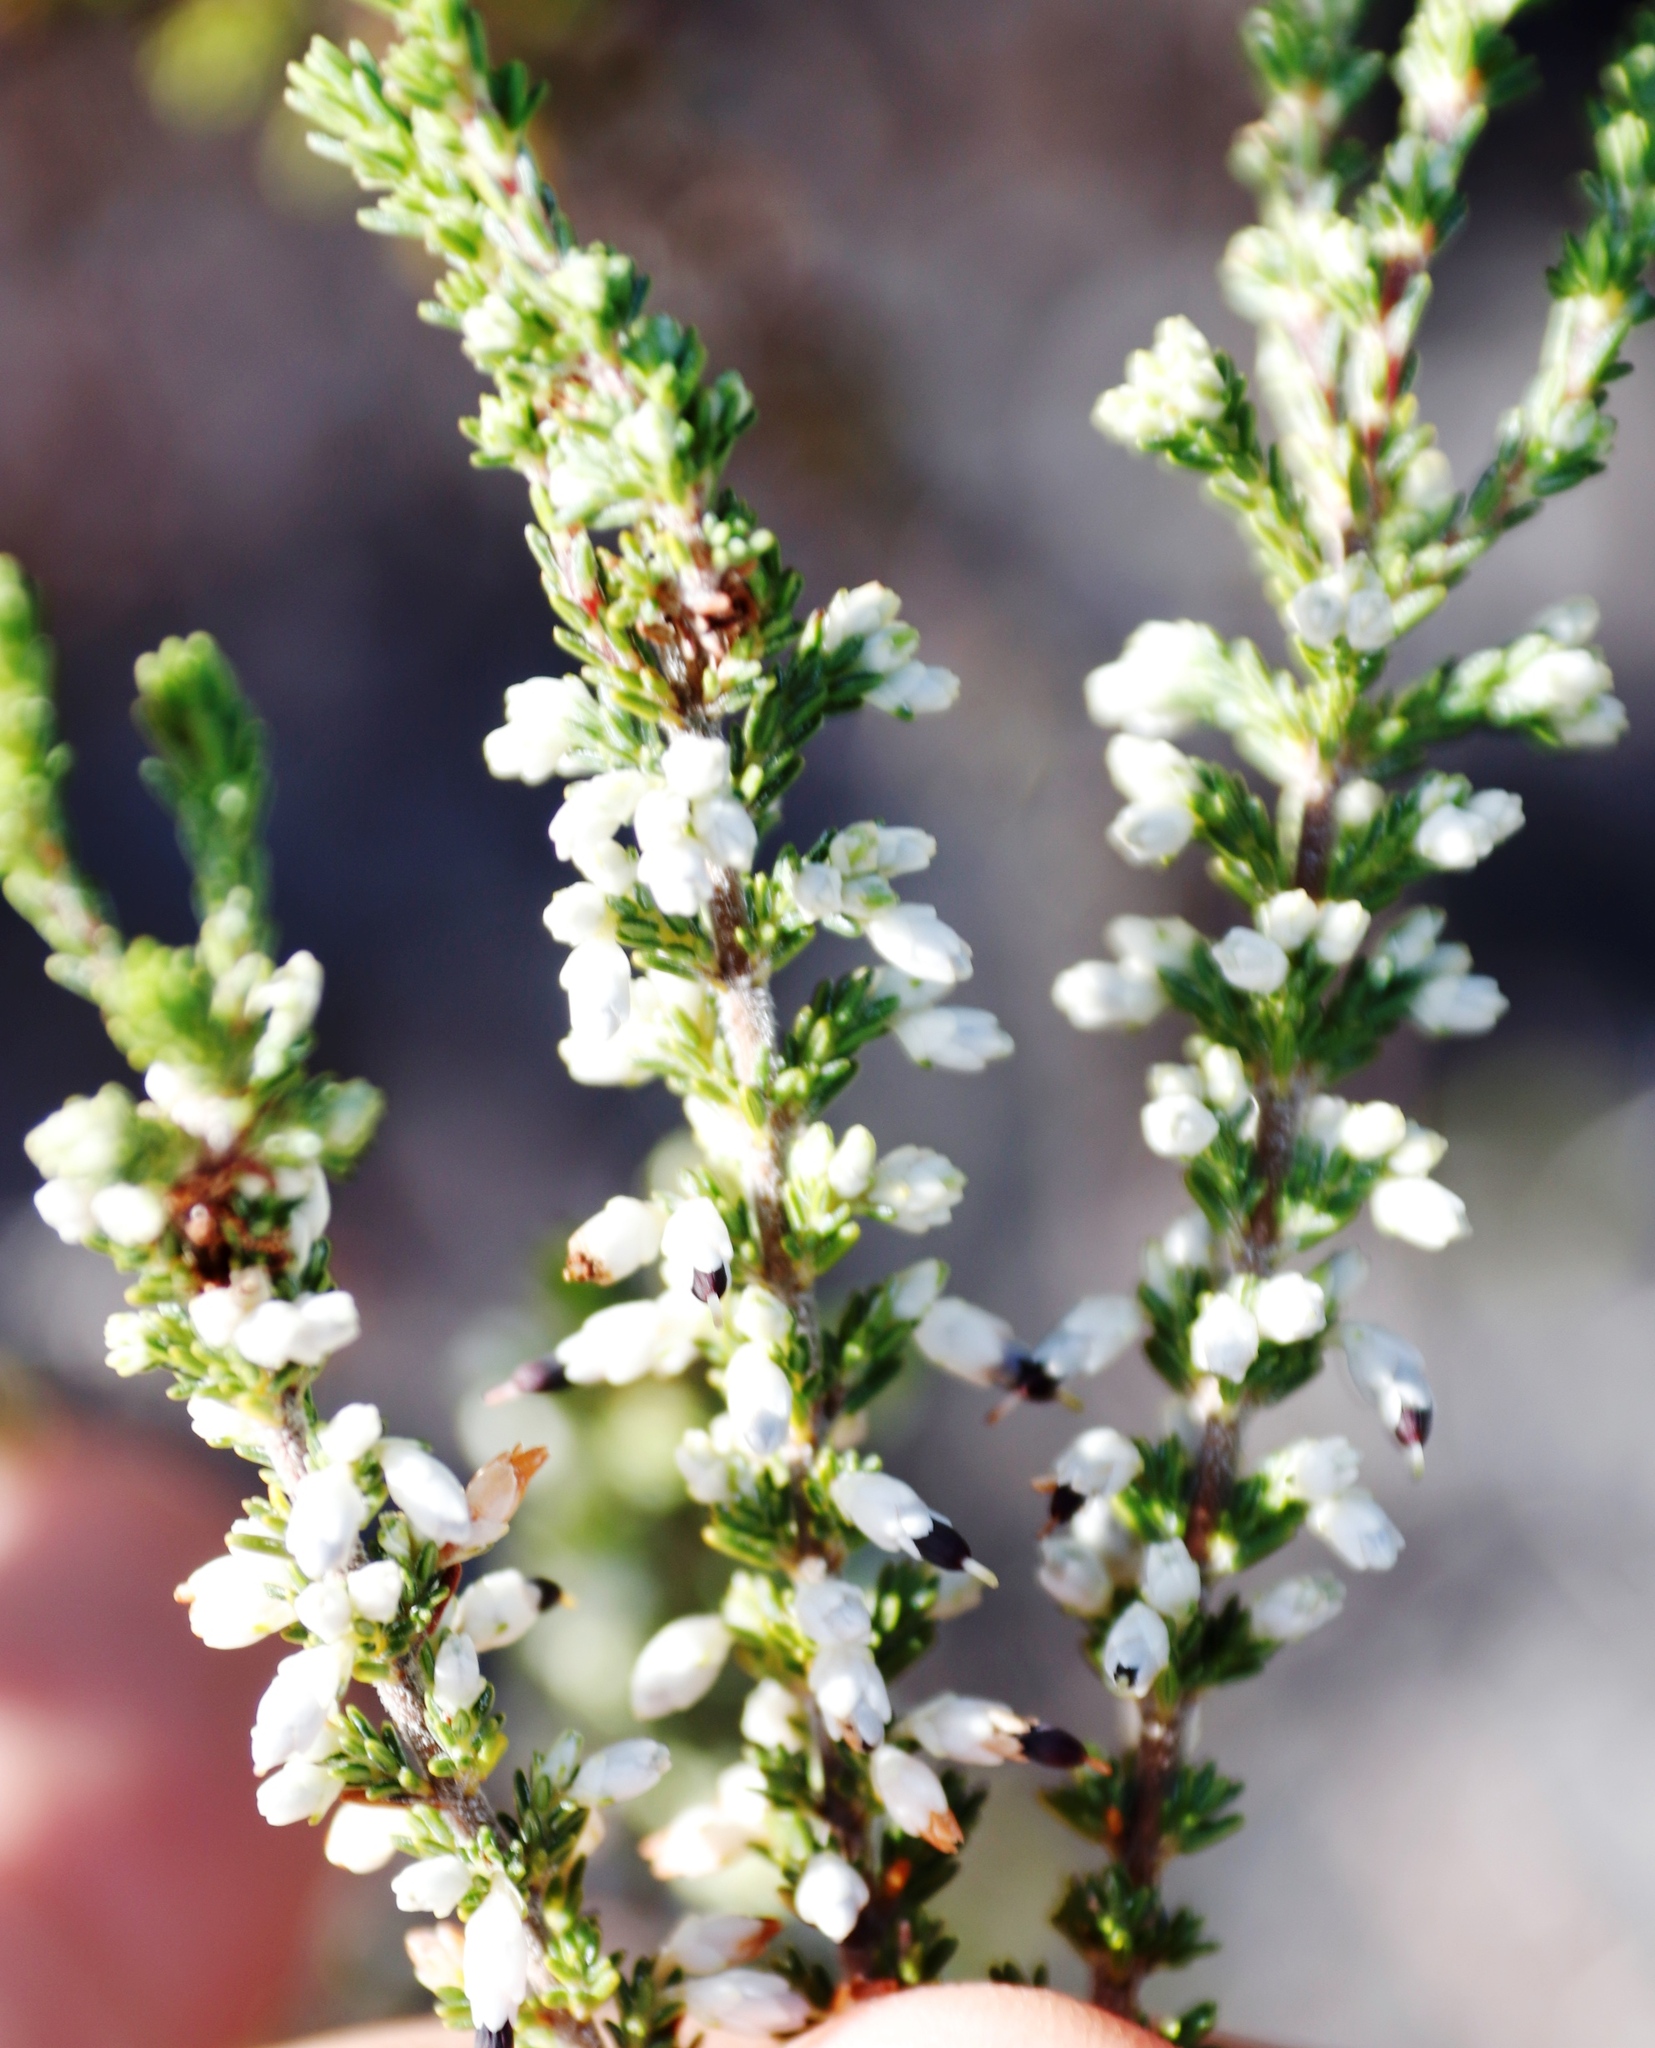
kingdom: Plantae
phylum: Tracheophyta
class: Magnoliopsida
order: Ericales
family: Ericaceae
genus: Erica
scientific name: Erica imbricata
